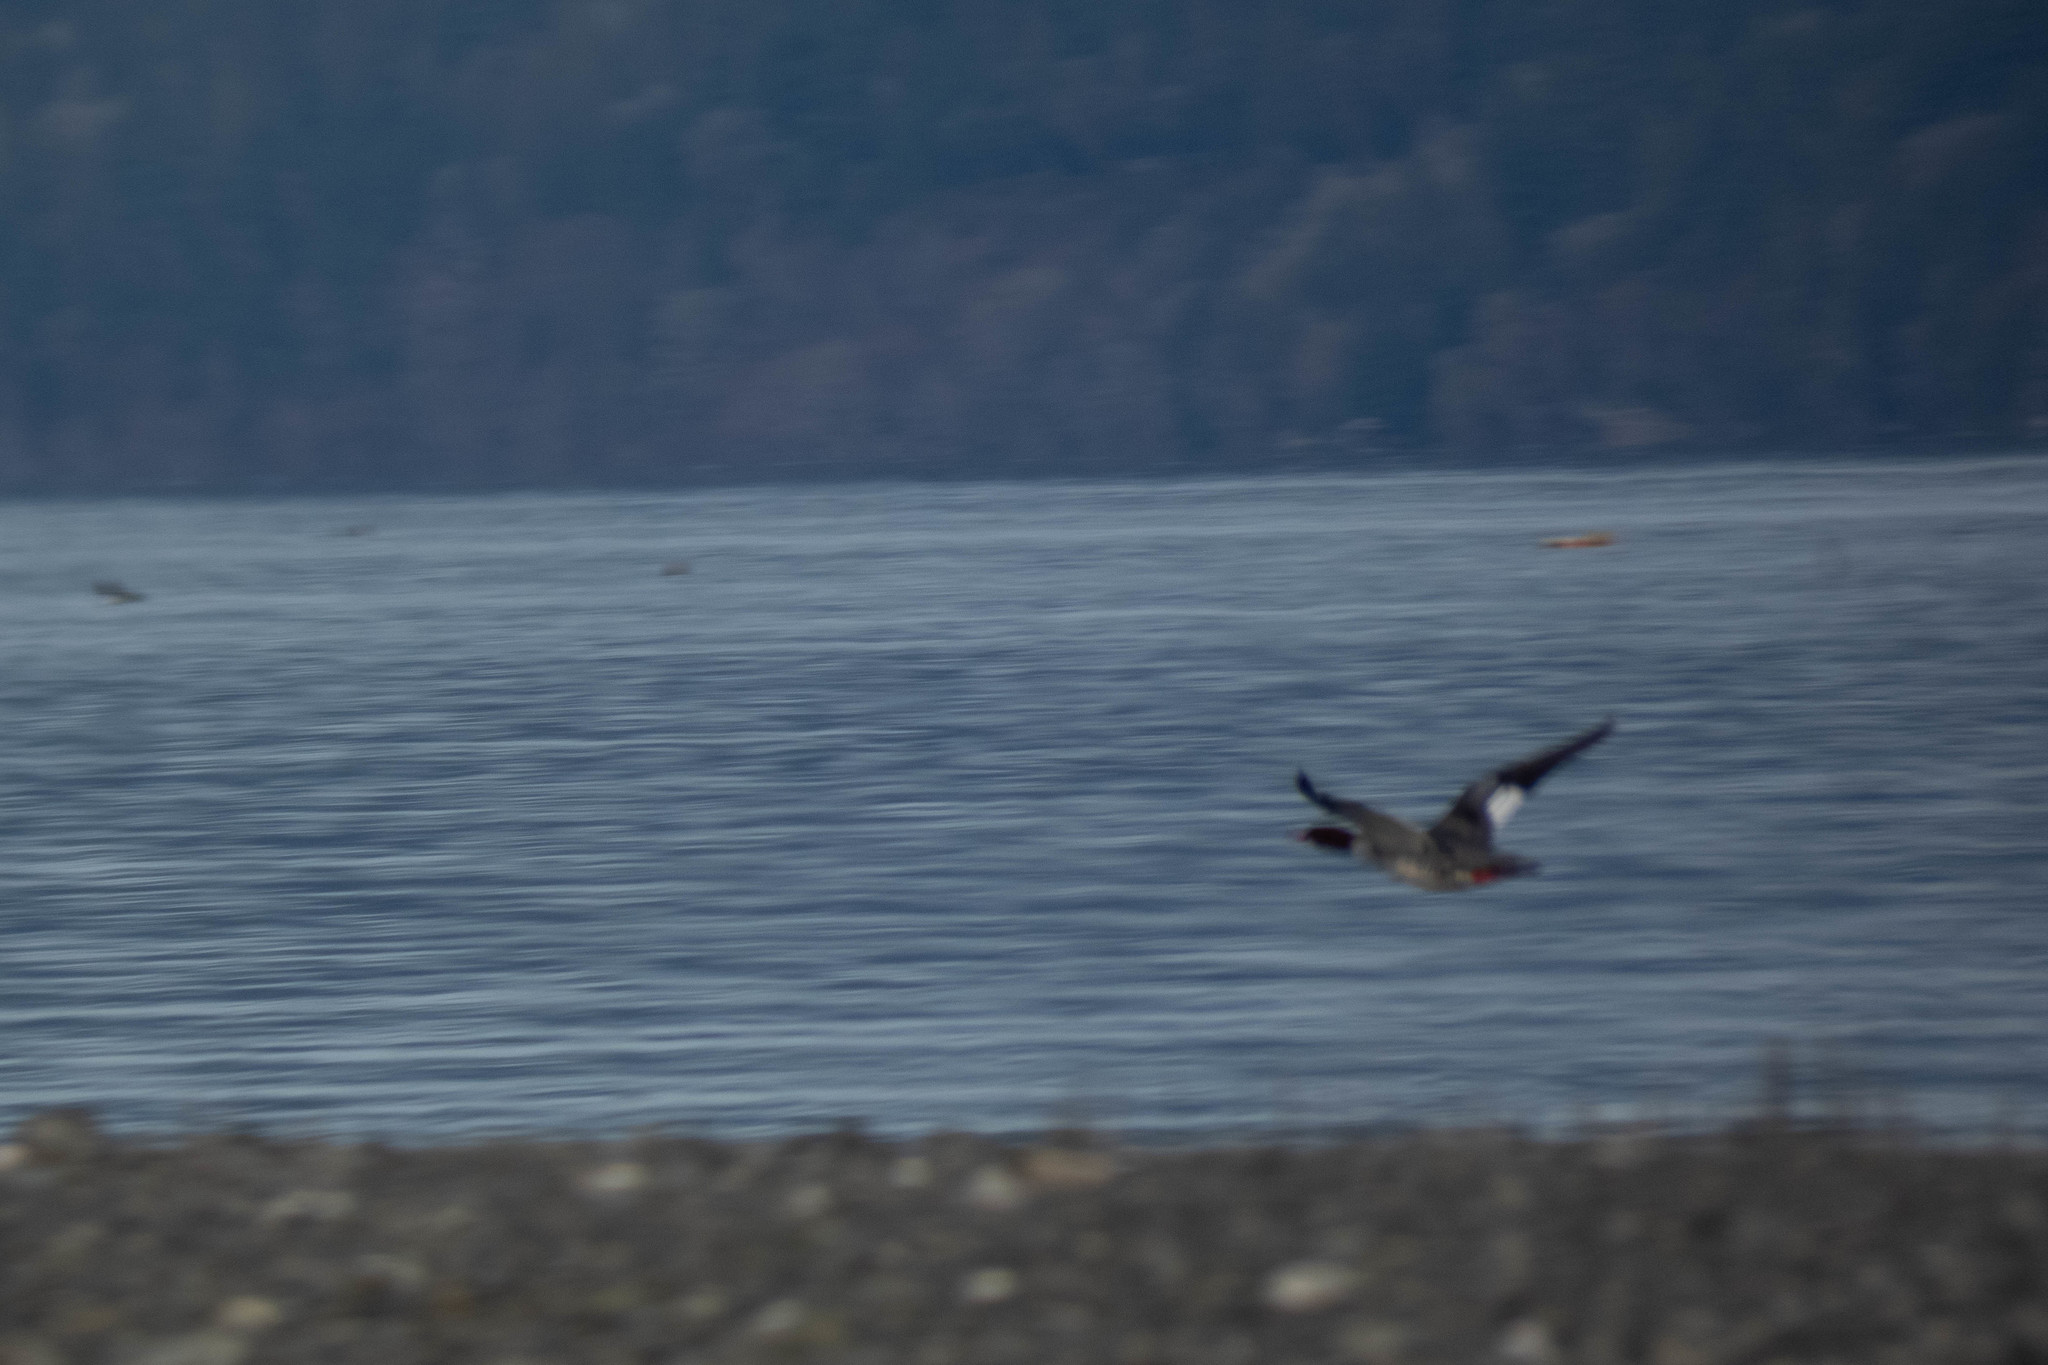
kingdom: Animalia
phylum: Chordata
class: Aves
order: Anseriformes
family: Anatidae
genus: Mergus
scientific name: Mergus merganser
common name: Common merganser
